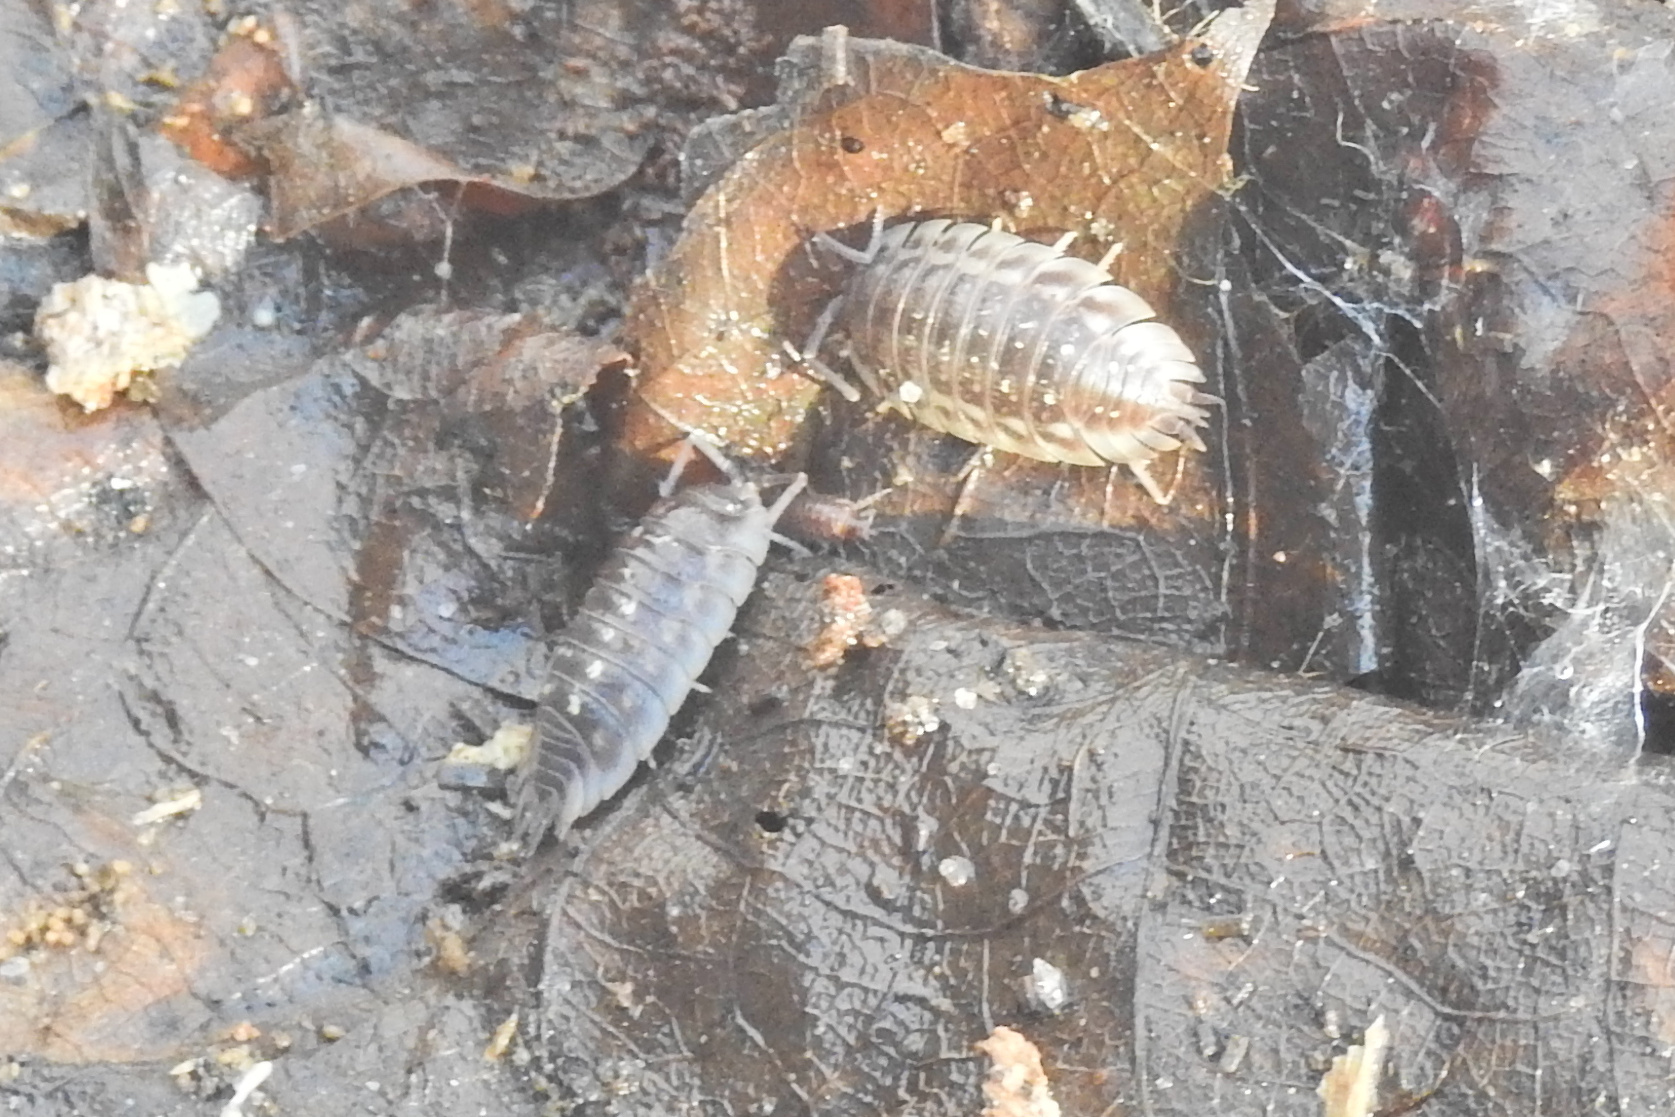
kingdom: Animalia
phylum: Arthropoda
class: Malacostraca
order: Isopoda
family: Oniscidae
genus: Oniscus
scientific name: Oniscus asellus
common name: Common shiny woodlouse
